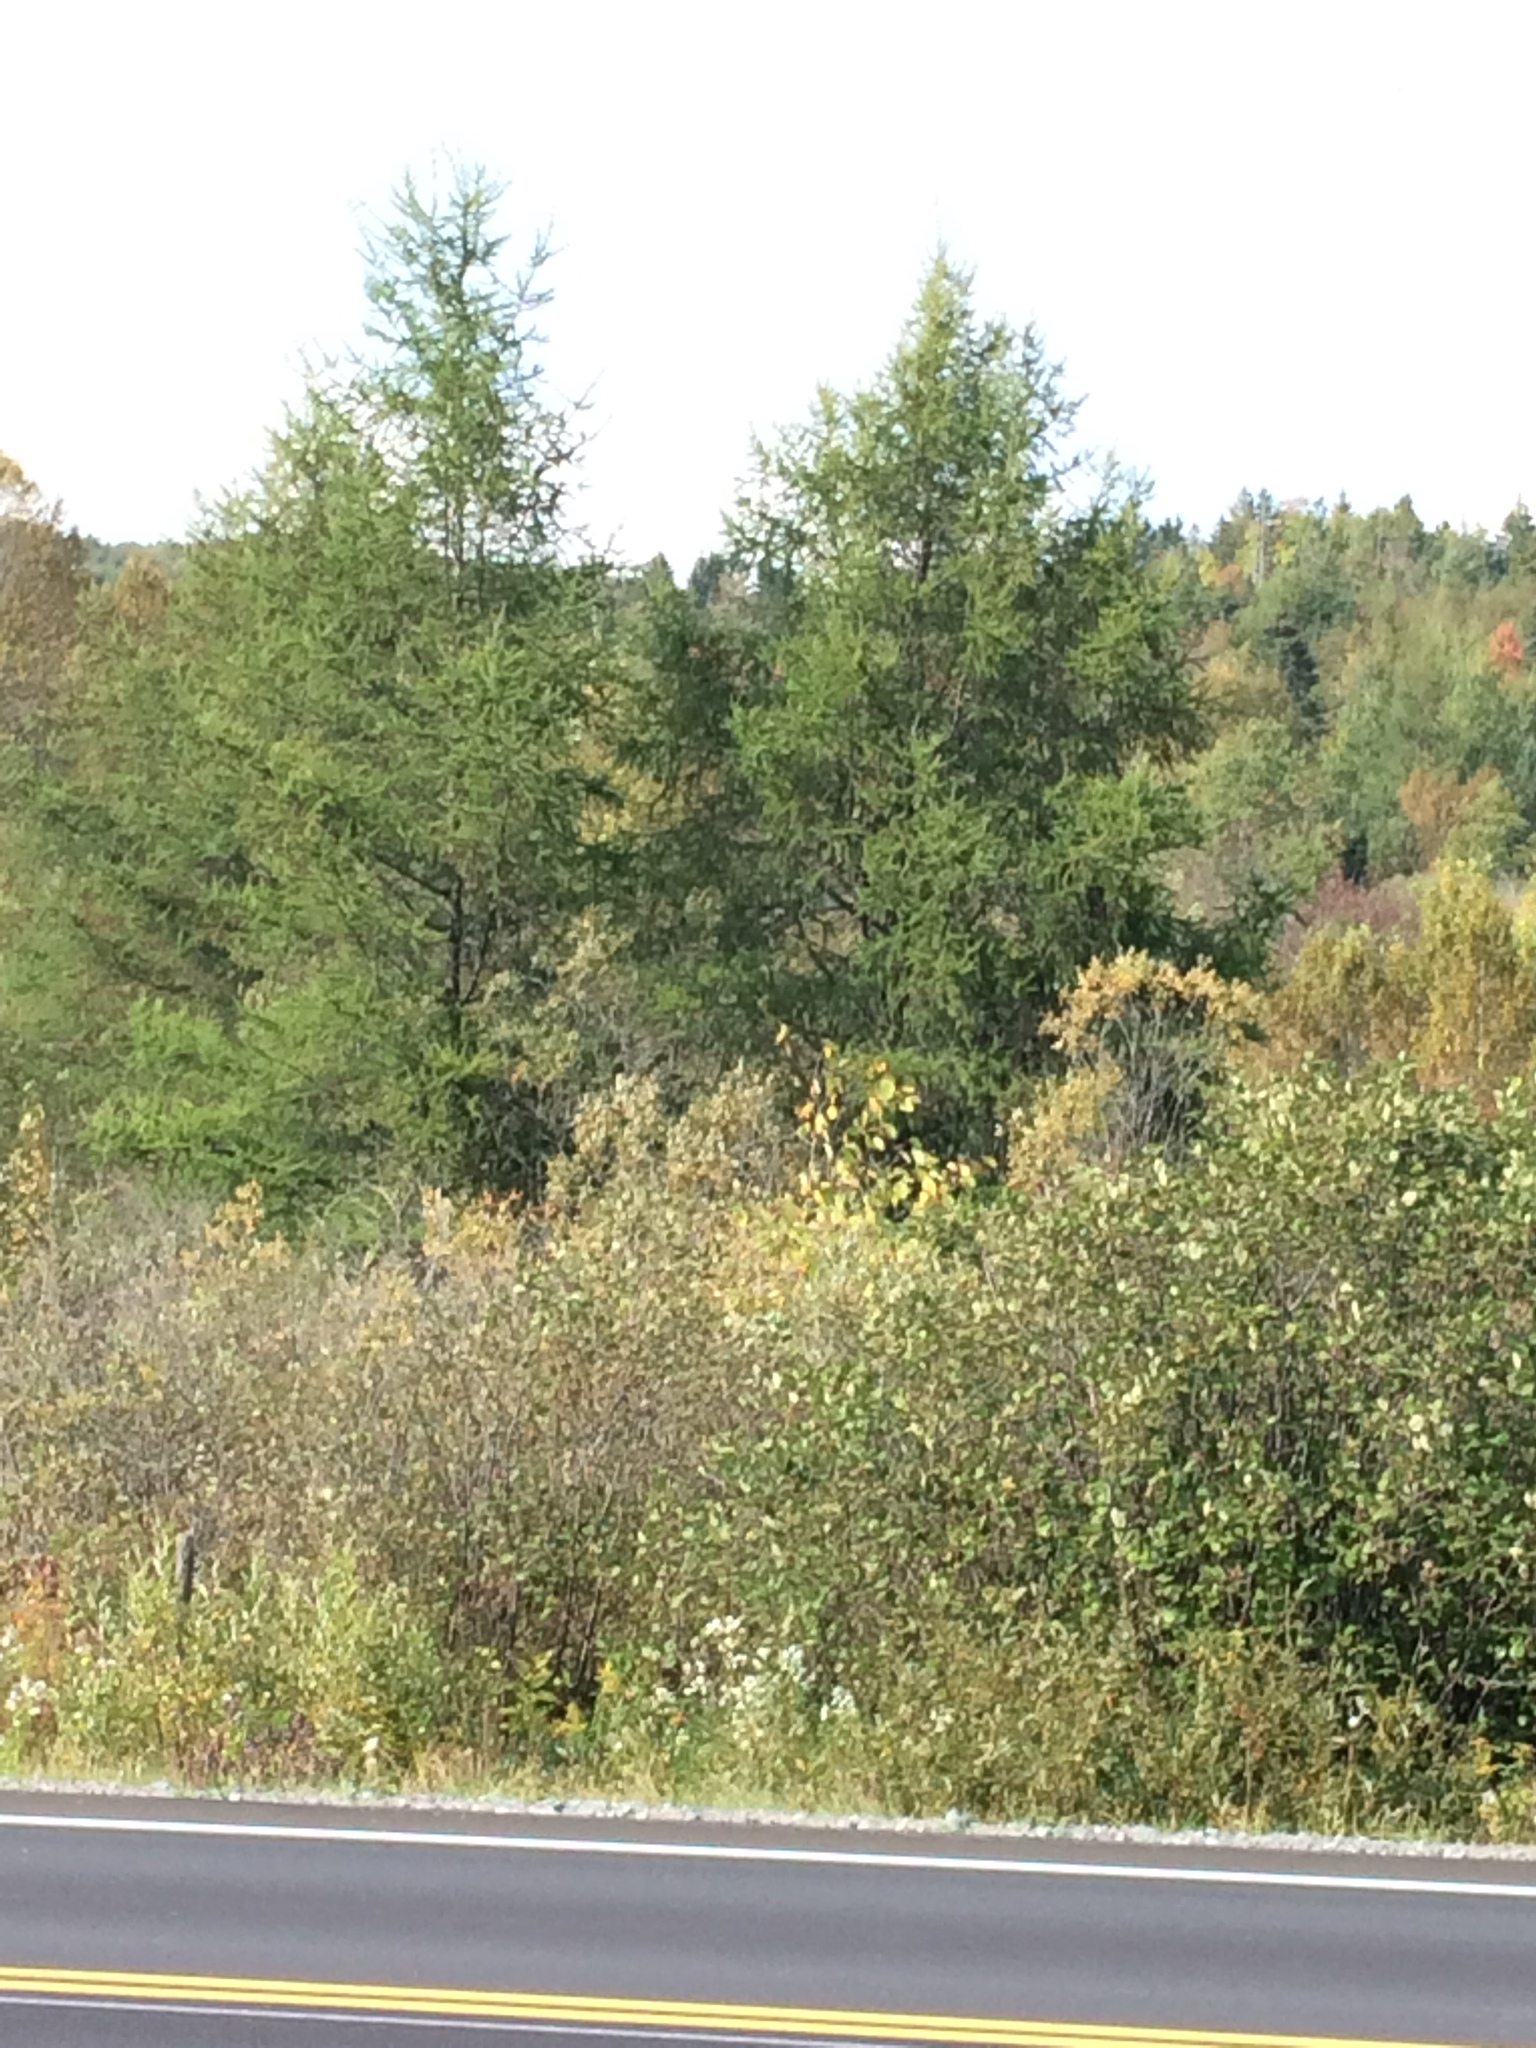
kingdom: Plantae
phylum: Tracheophyta
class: Pinopsida
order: Pinales
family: Pinaceae
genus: Larix
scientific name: Larix laricina
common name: American larch
